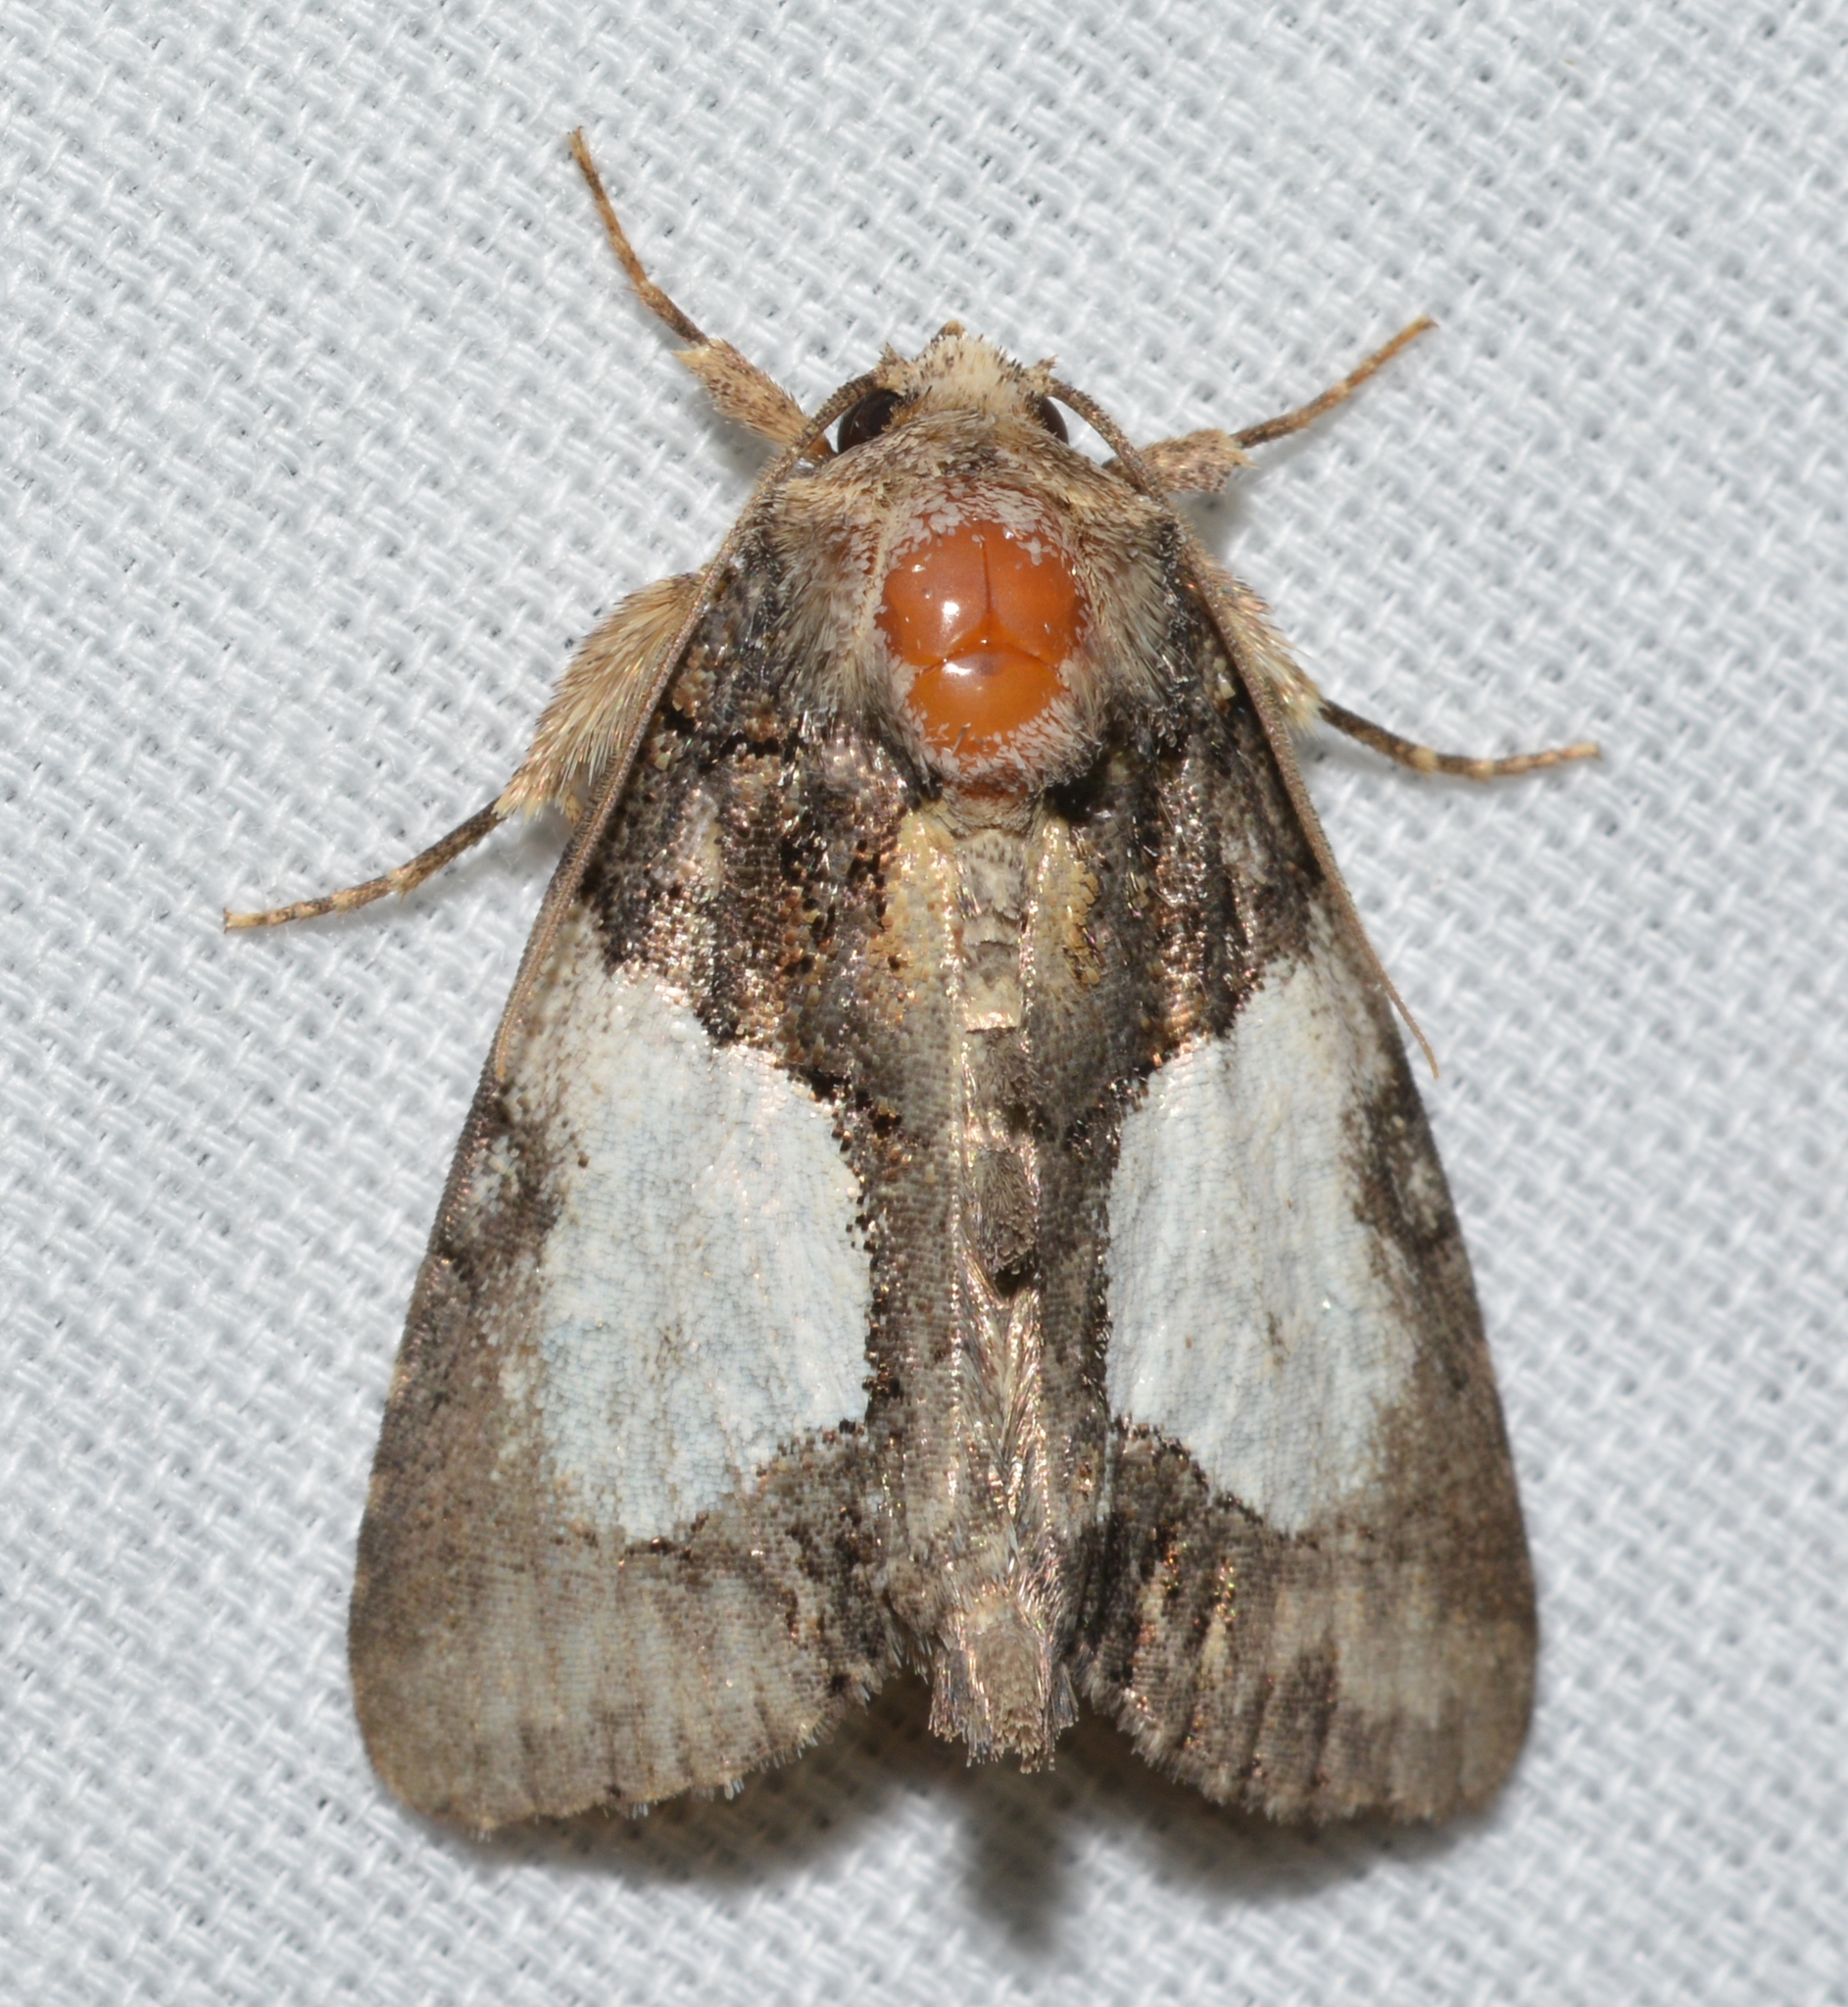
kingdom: Animalia
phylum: Arthropoda
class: Insecta
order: Lepidoptera
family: Noctuidae
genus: Chytonix
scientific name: Chytonix palliatricula
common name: Cloaked marvel
